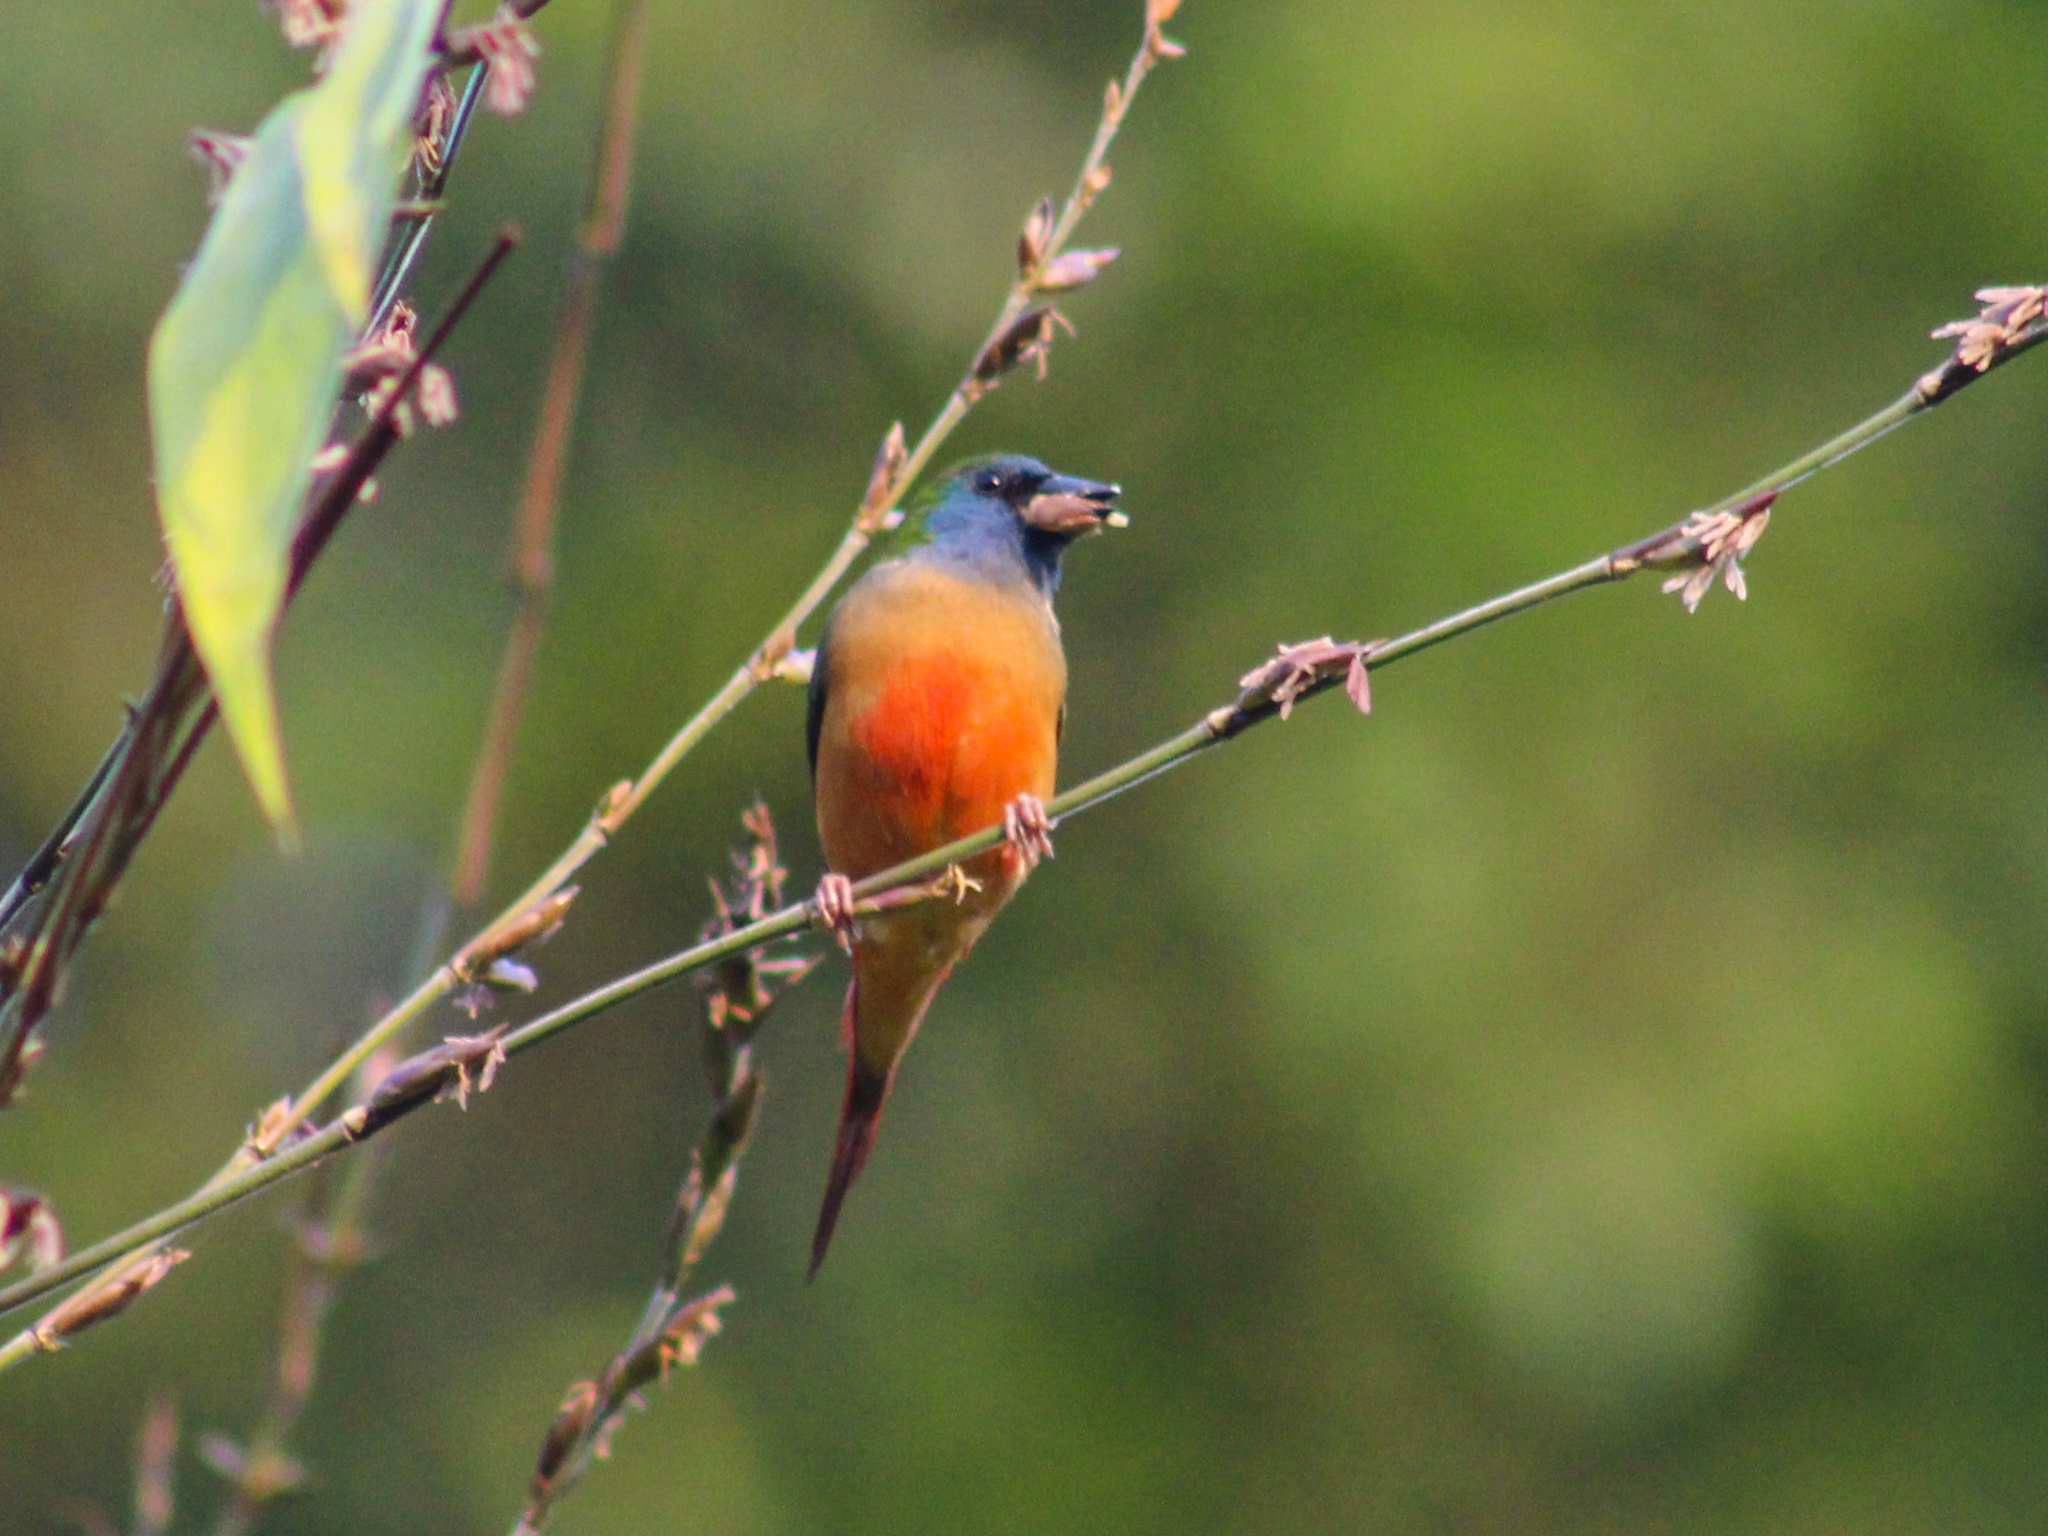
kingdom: Animalia
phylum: Chordata
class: Aves
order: Passeriformes
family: Estrildidae
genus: Erythrura
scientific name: Erythrura prasina
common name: Pin-tailed parrotfinch
